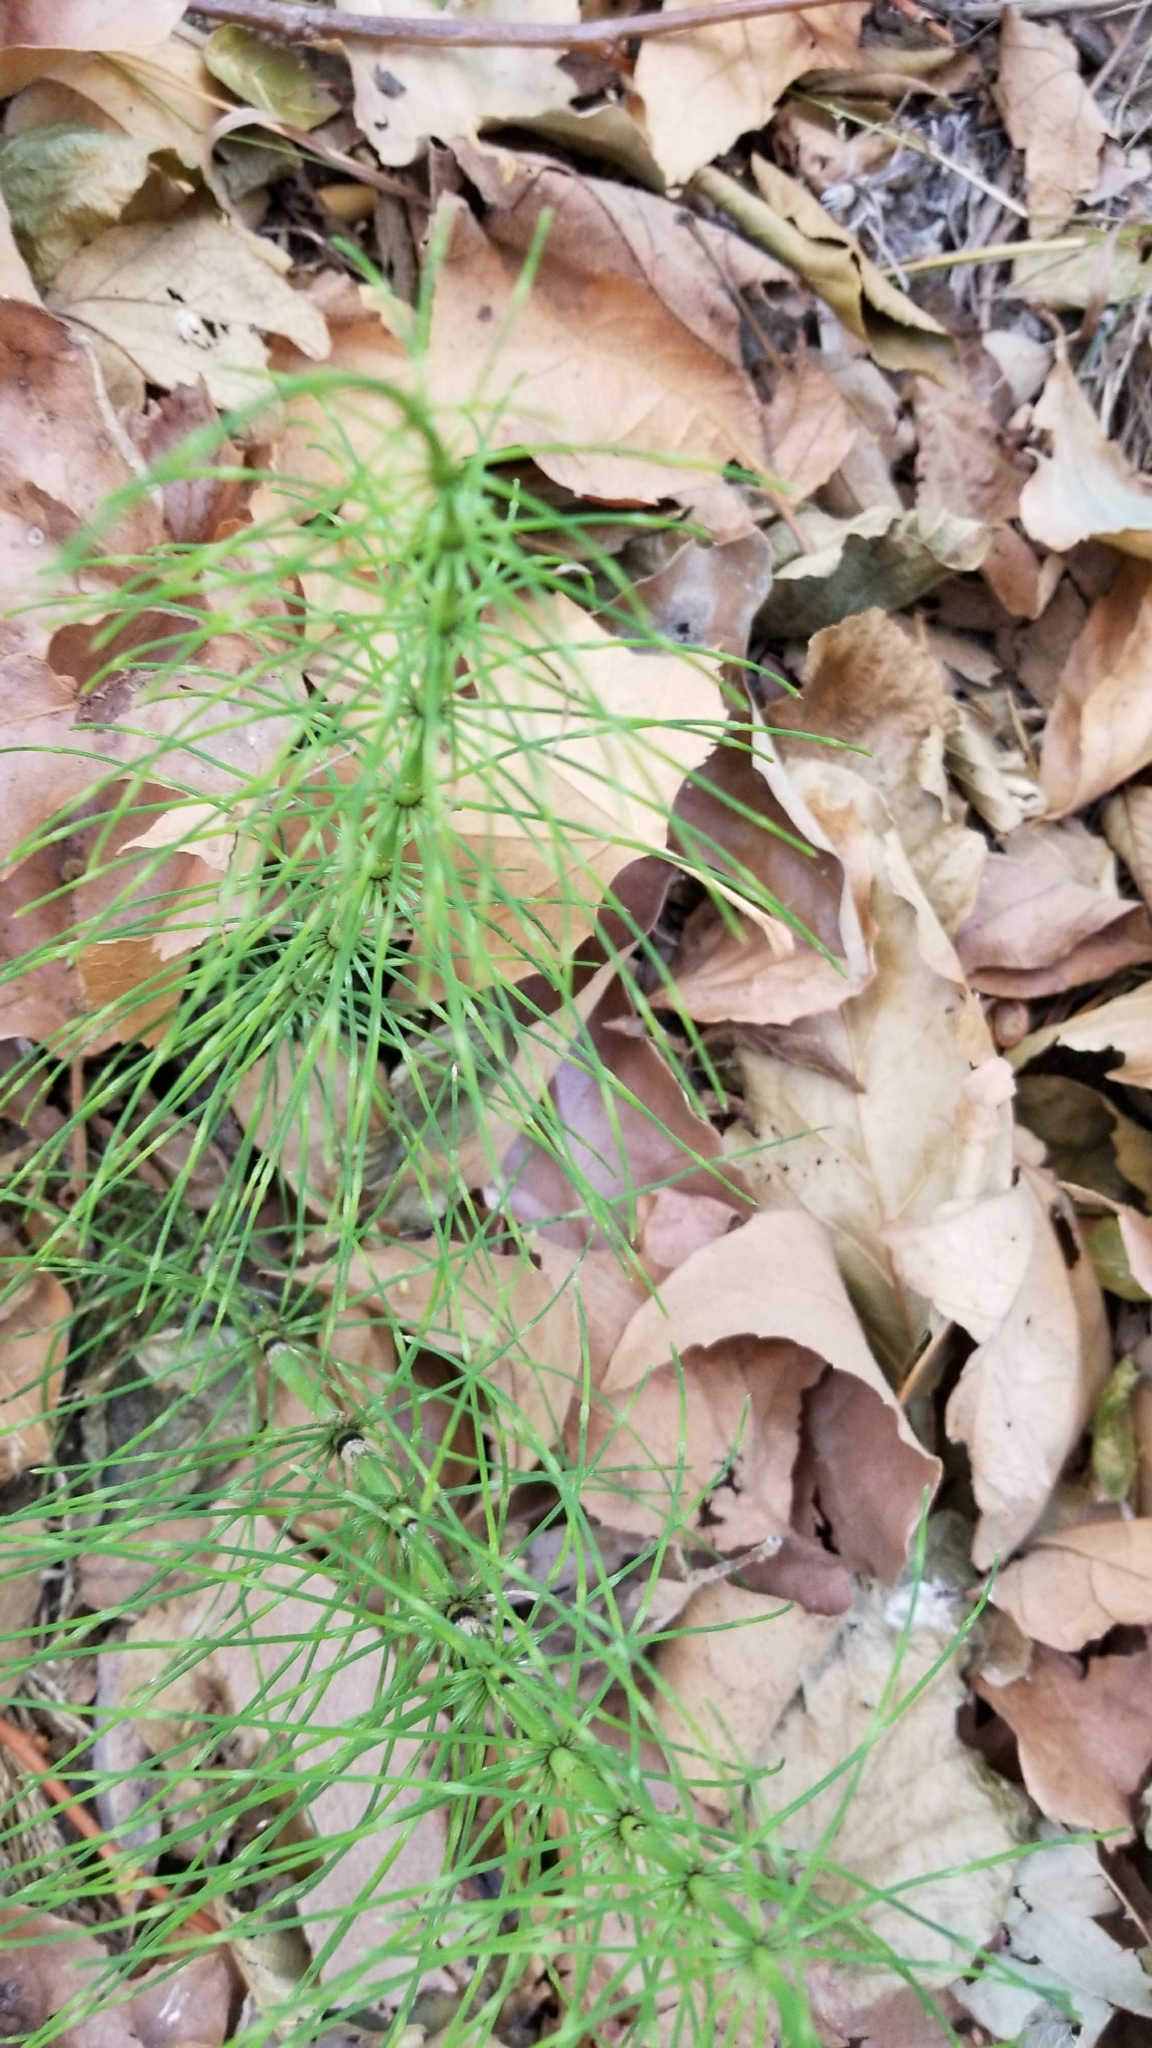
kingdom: Plantae
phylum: Tracheophyta
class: Polypodiopsida
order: Equisetales
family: Equisetaceae
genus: Equisetum
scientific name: Equisetum arvense
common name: Field horsetail
